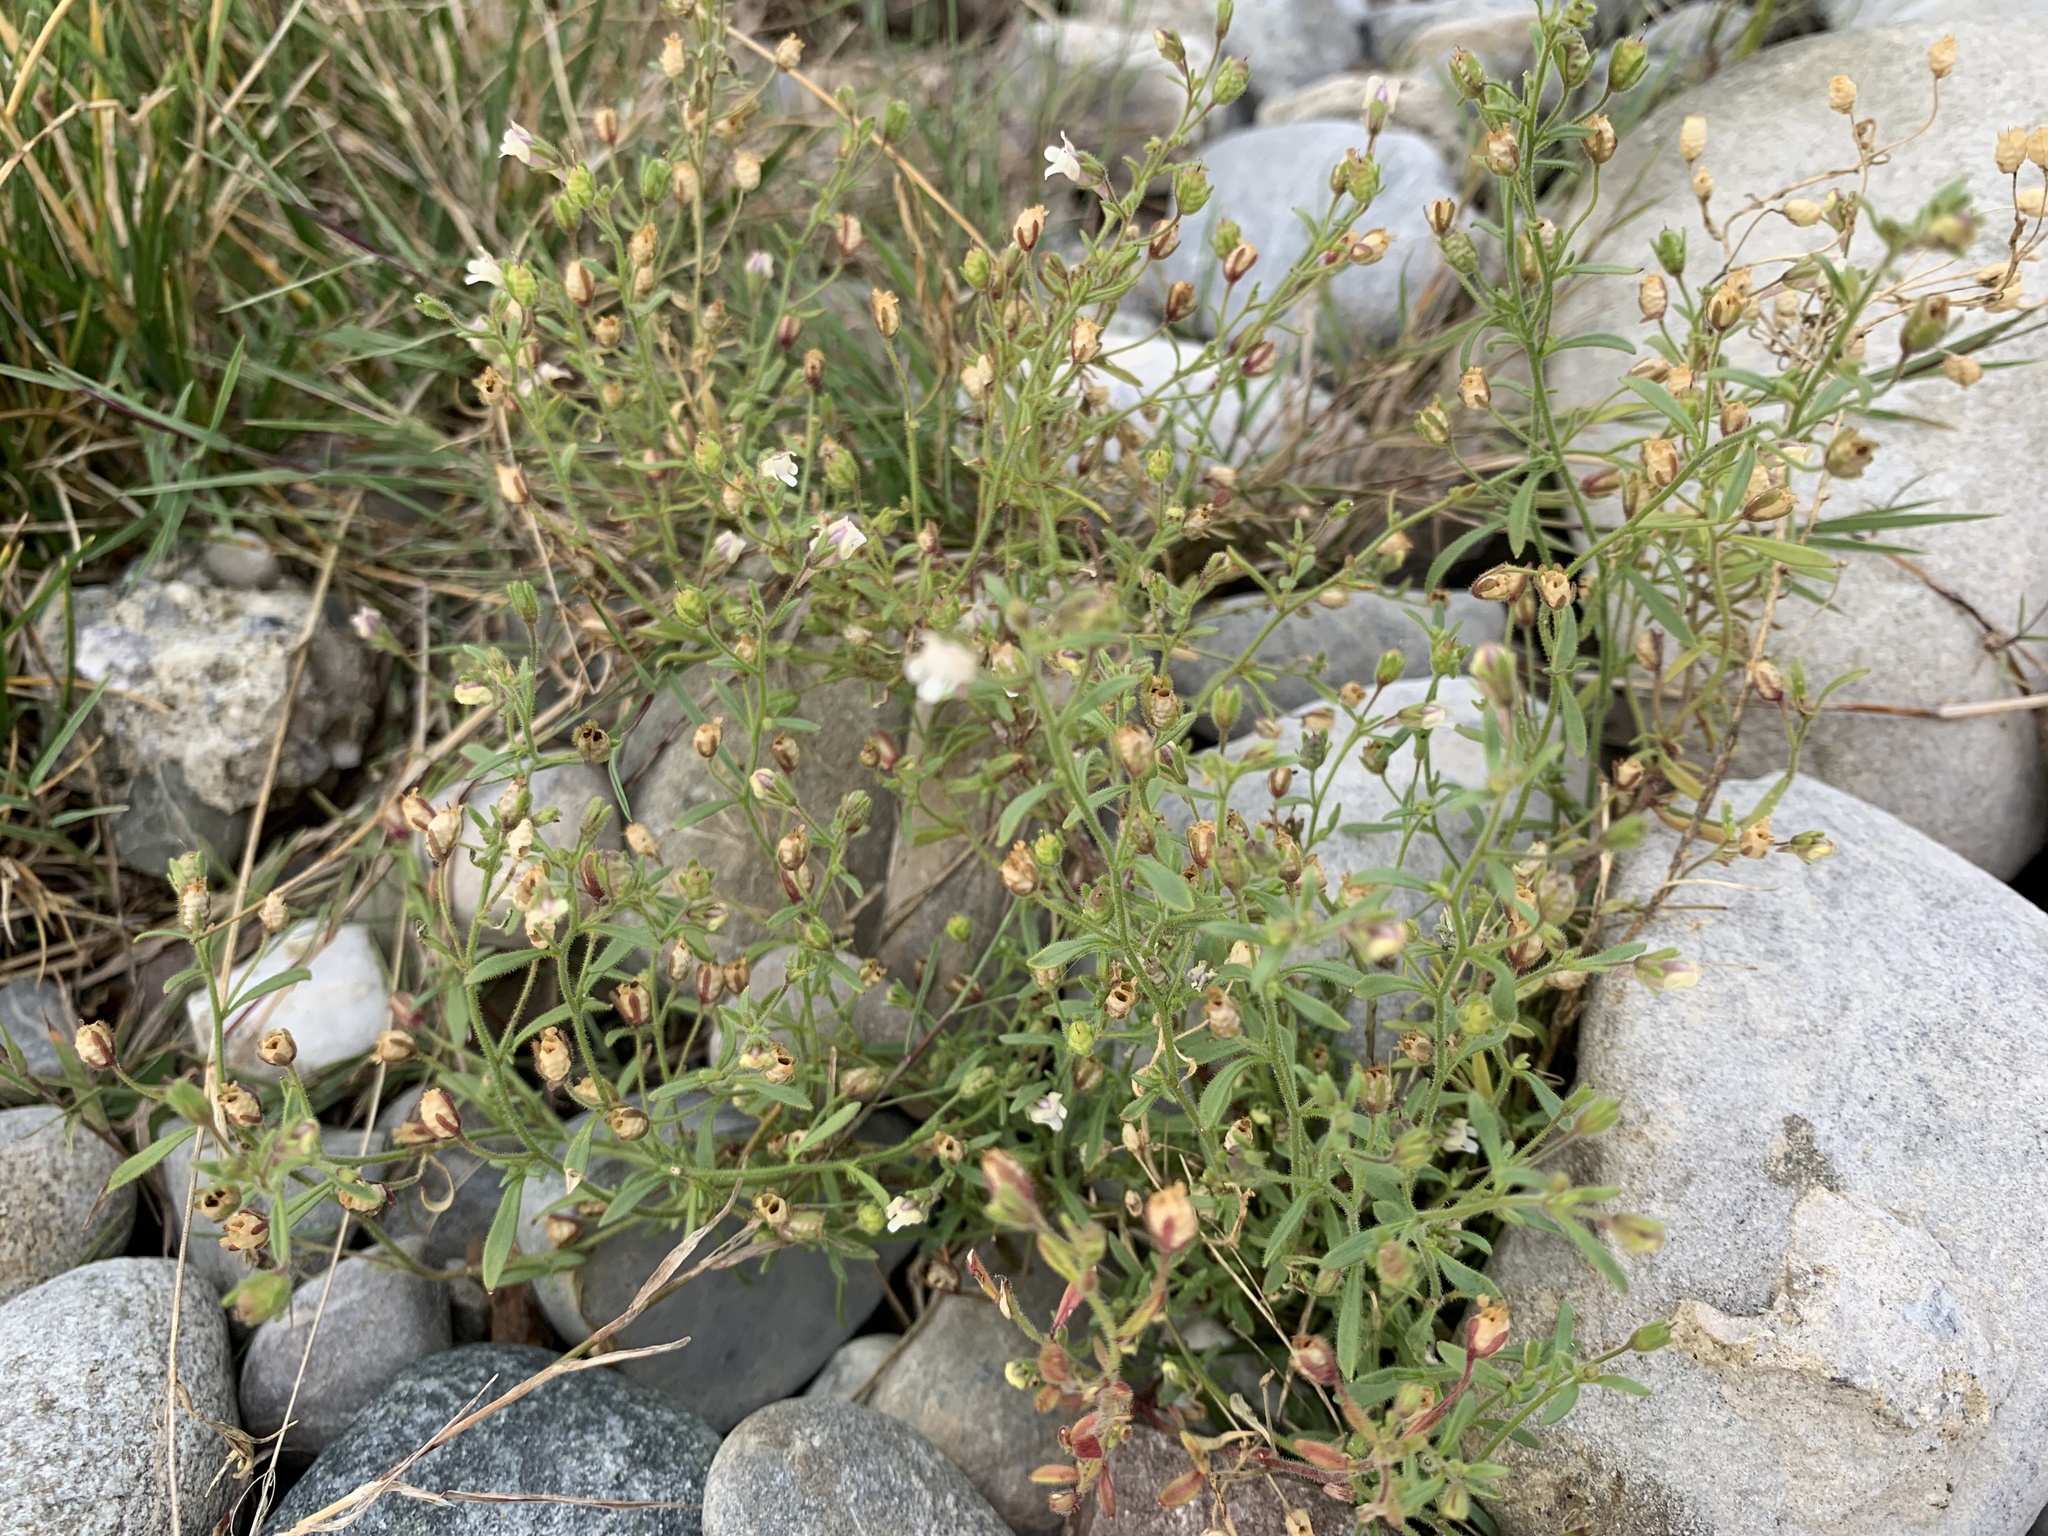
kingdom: Plantae
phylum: Tracheophyta
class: Magnoliopsida
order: Lamiales
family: Plantaginaceae
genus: Chaenorhinum
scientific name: Chaenorhinum minus
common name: Dwarf snapdragon
